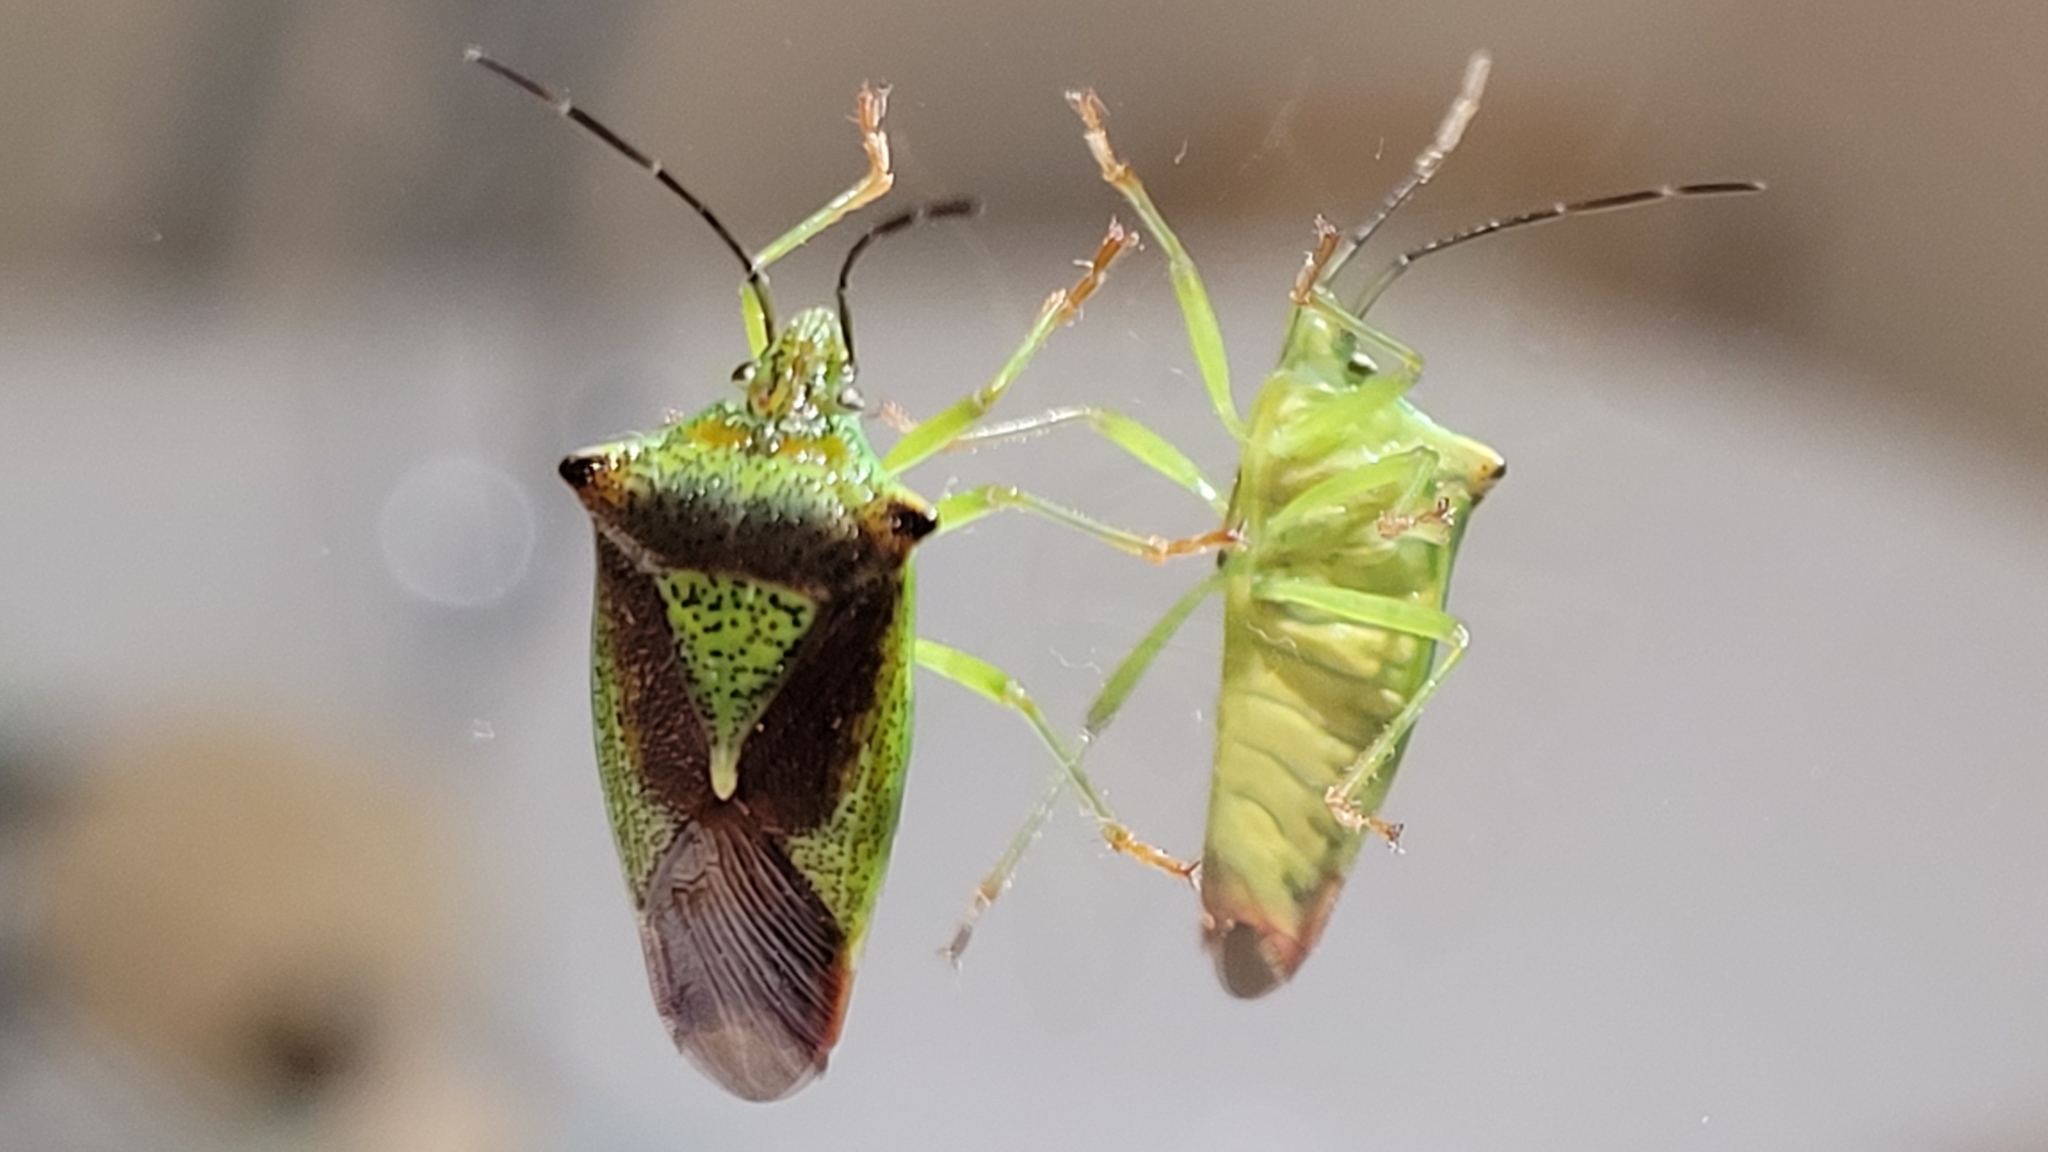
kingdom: Animalia
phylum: Arthropoda
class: Insecta
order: Hemiptera
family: Acanthosomatidae
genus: Acanthosoma
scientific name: Acanthosoma haemorrhoidale
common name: Hawthorn shieldbug
